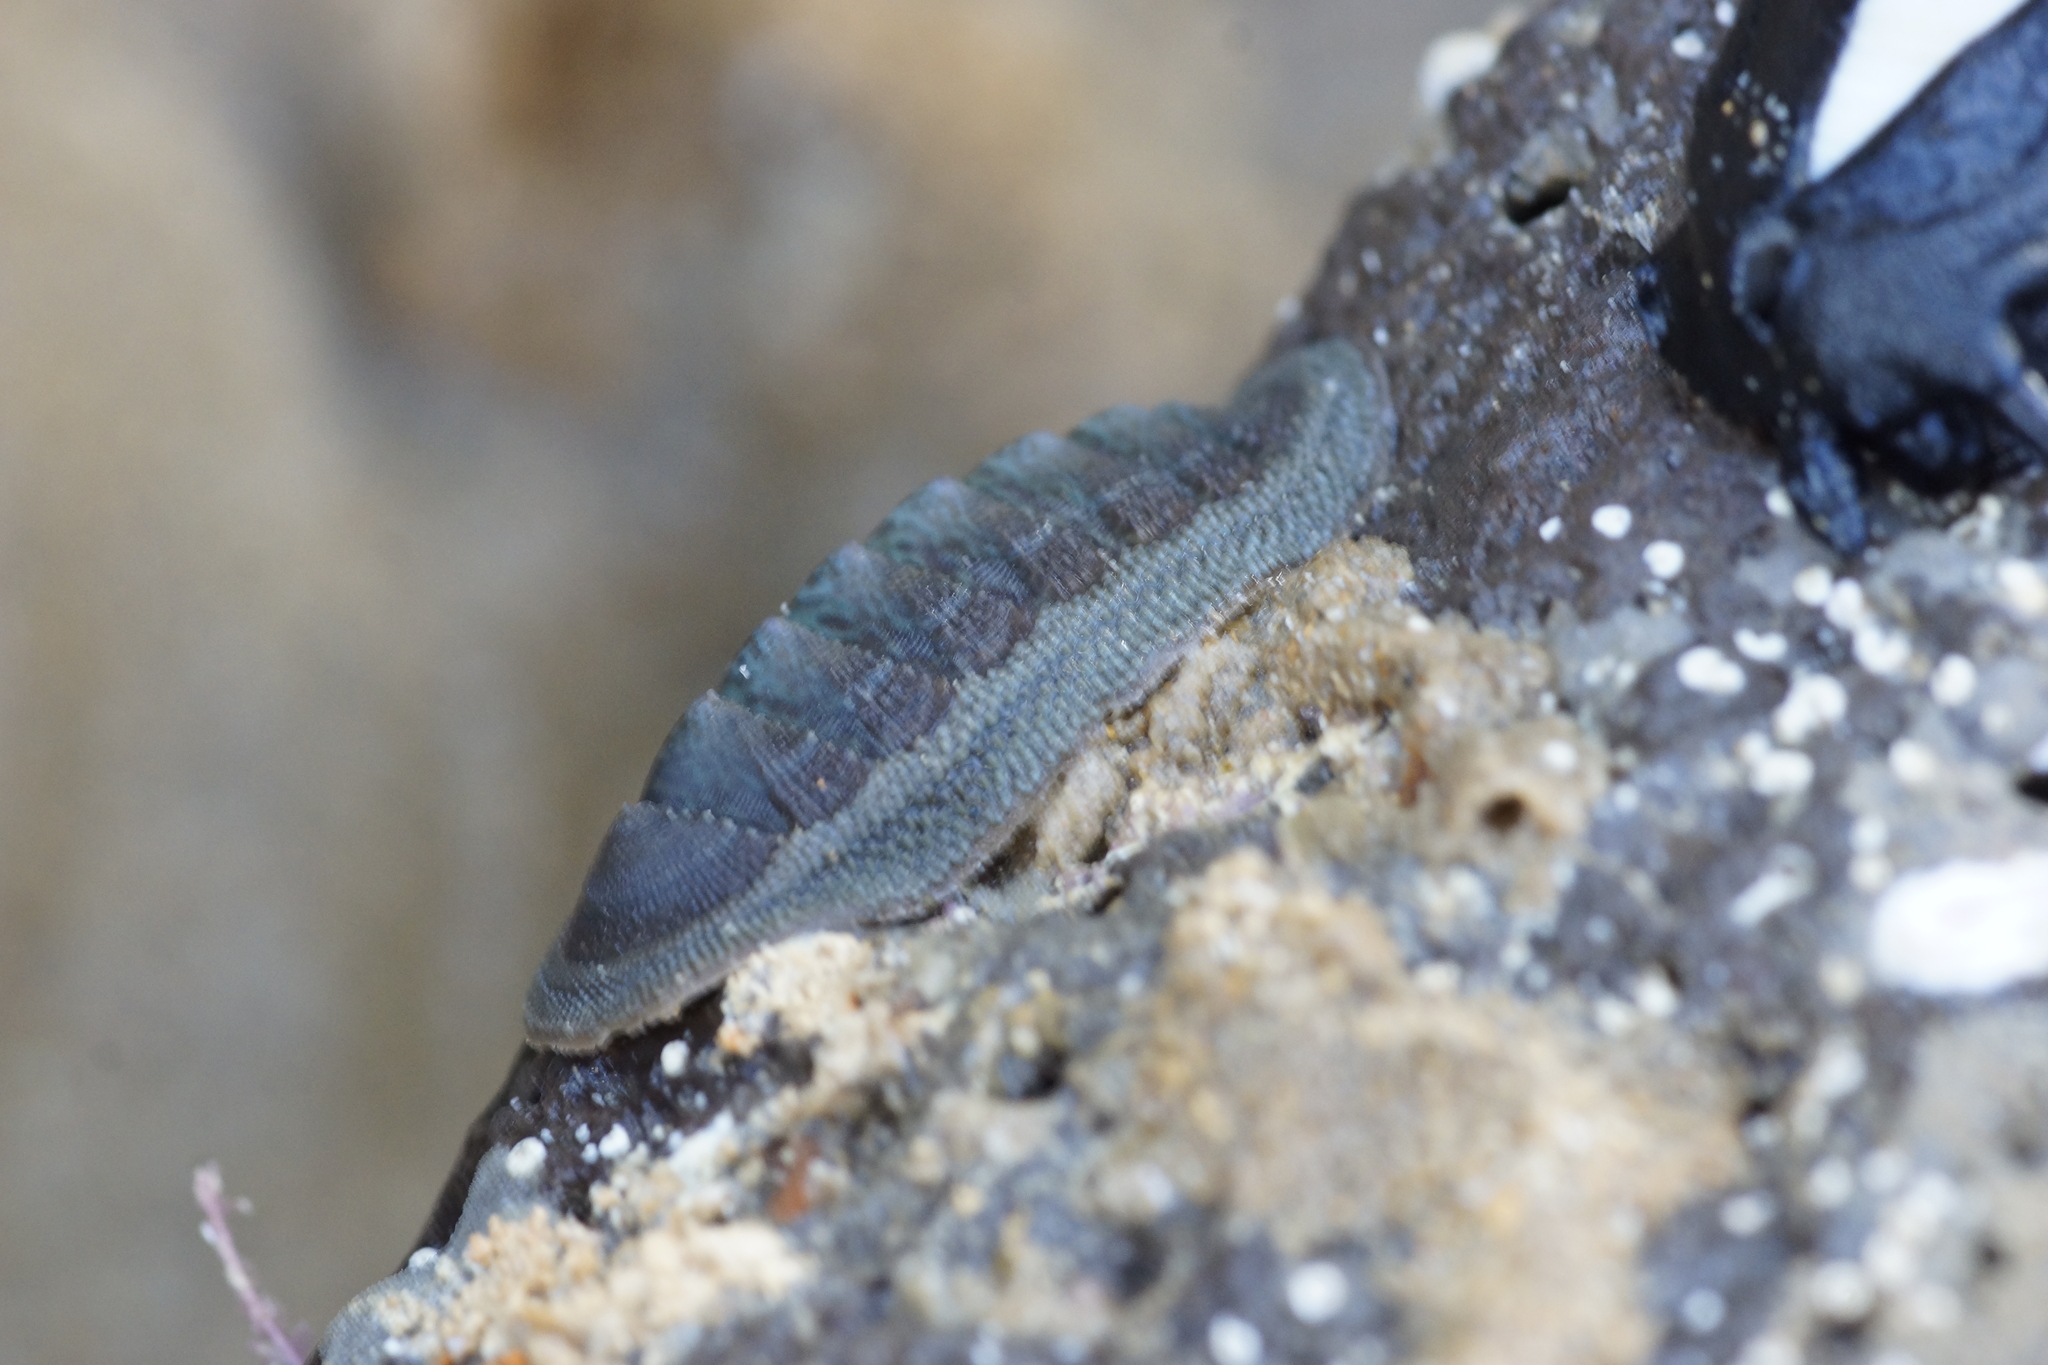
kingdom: Animalia
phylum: Mollusca
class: Polyplacophora
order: Chitonida
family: Ischnochitonidae
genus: Ischnochiton
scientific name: Ischnochiton australis
